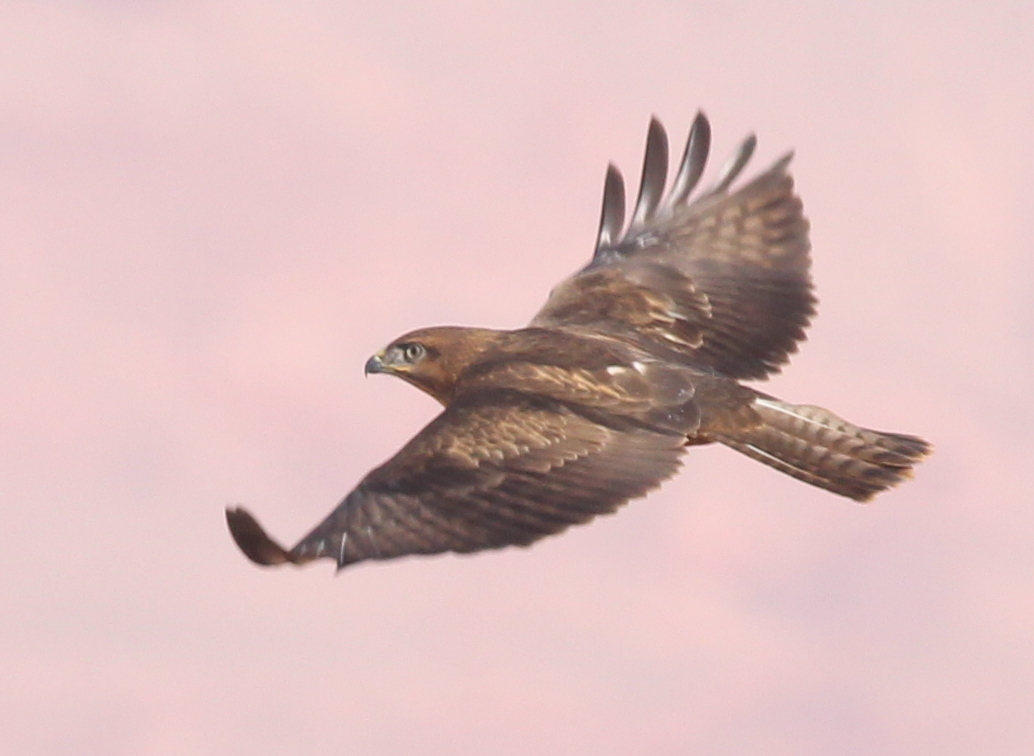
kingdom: Animalia
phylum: Chordata
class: Aves
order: Accipitriformes
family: Accipitridae
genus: Buteo
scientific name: Buteo rufinus
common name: Long-legged buzzard
